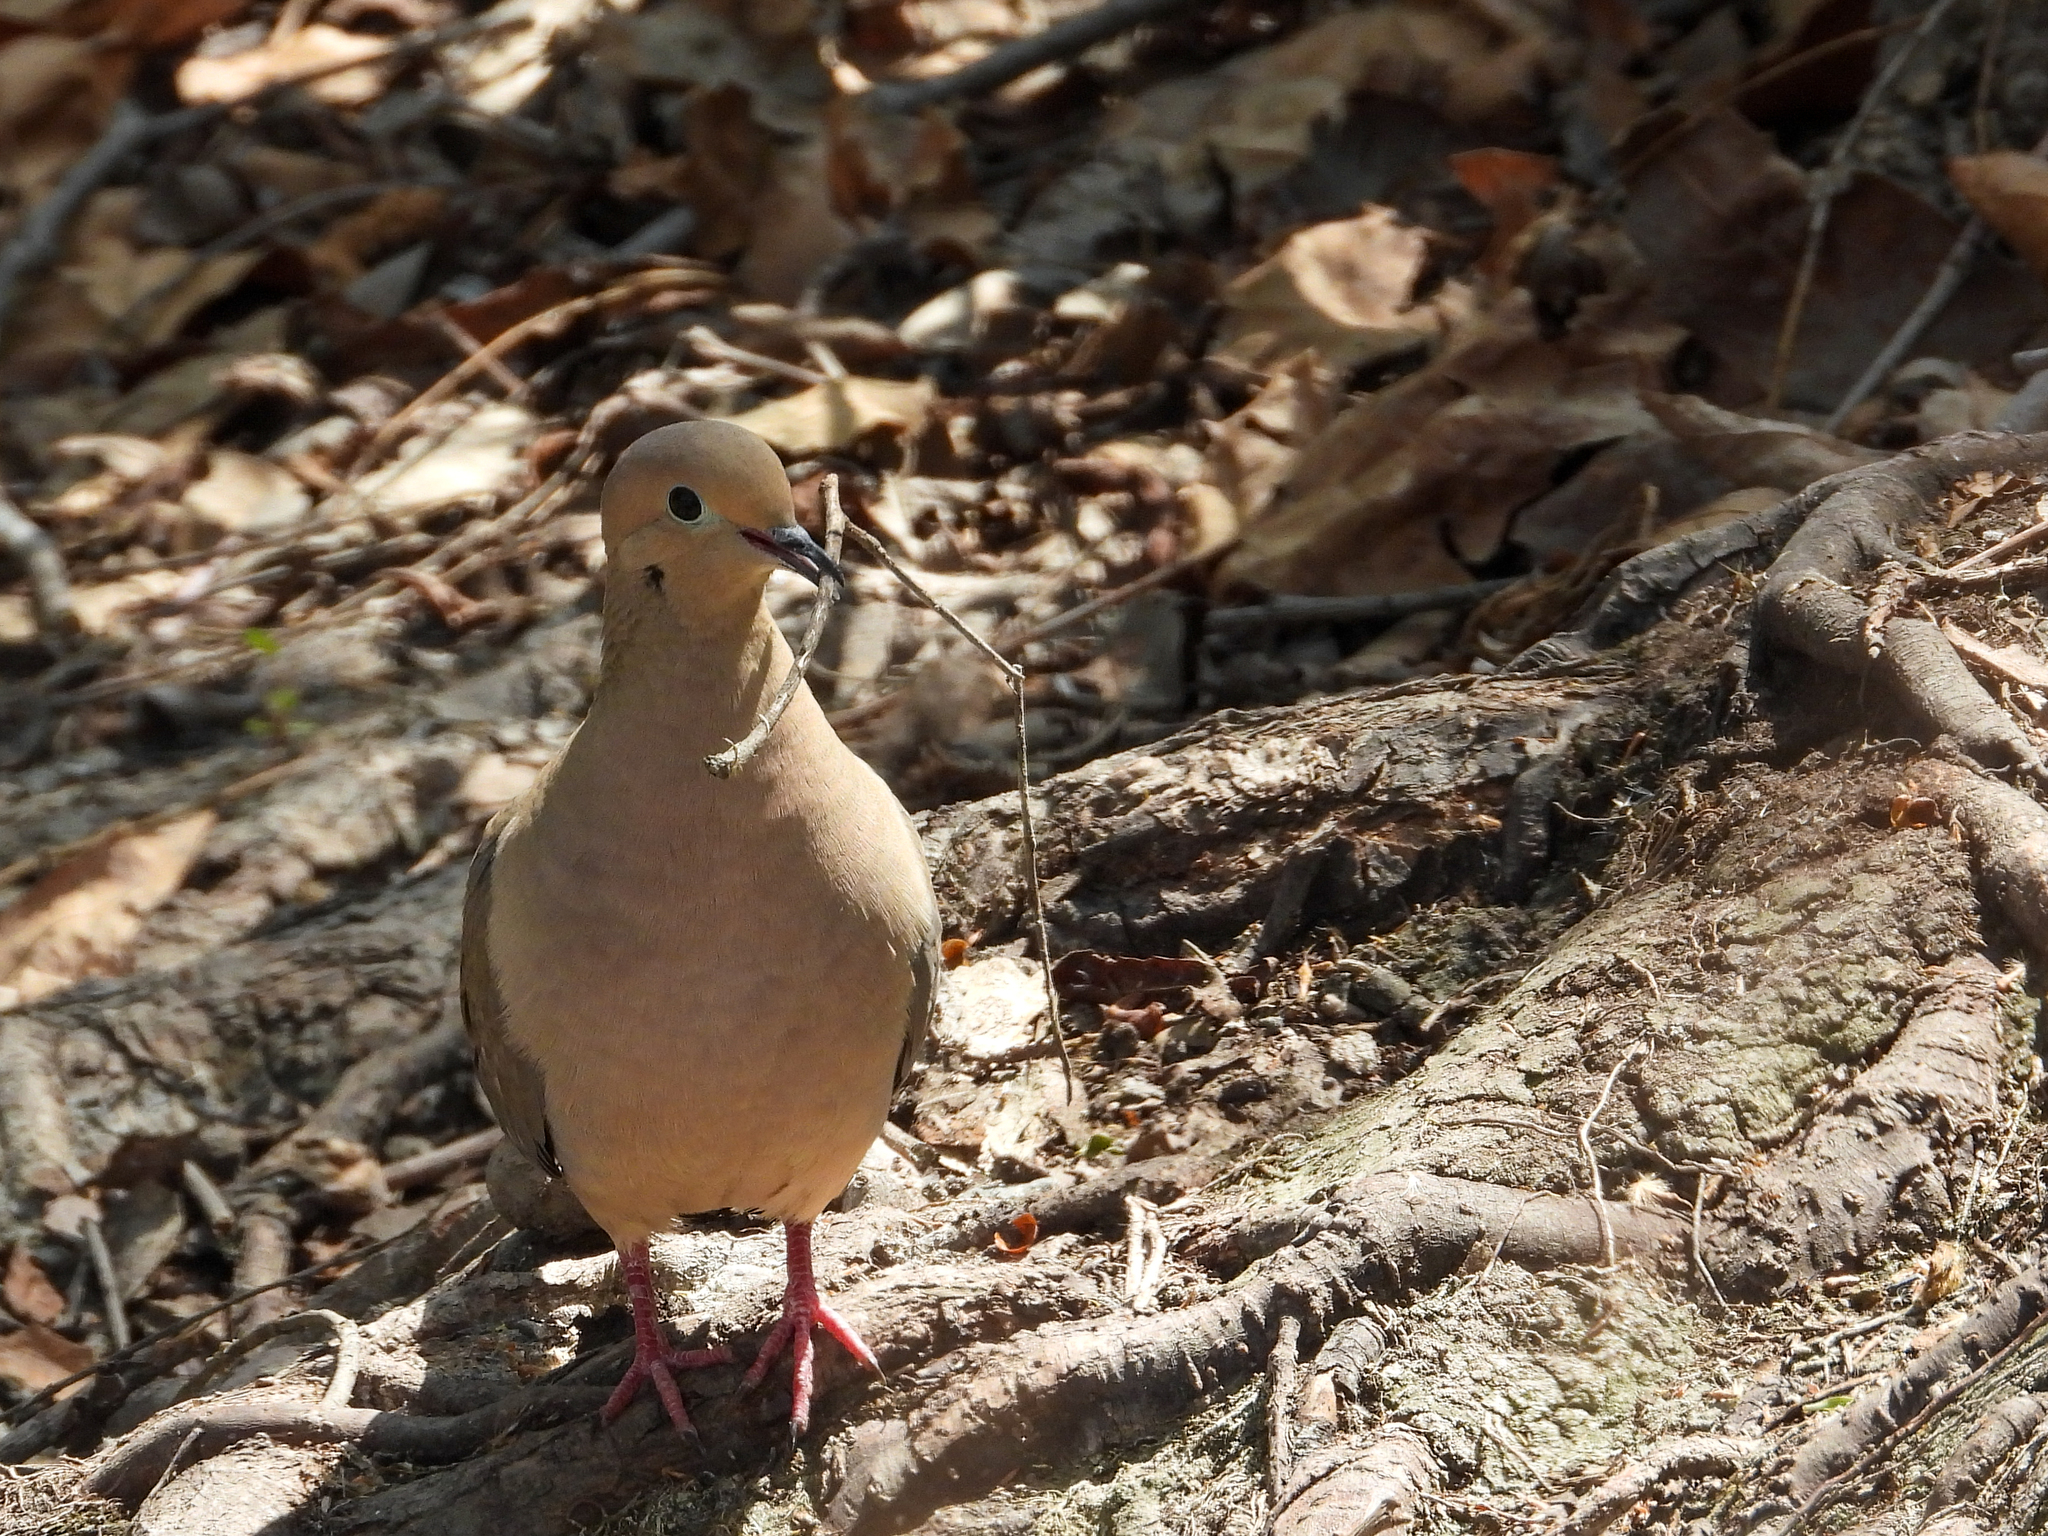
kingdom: Animalia
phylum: Chordata
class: Aves
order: Columbiformes
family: Columbidae
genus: Zenaida
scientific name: Zenaida macroura
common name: Mourning dove
